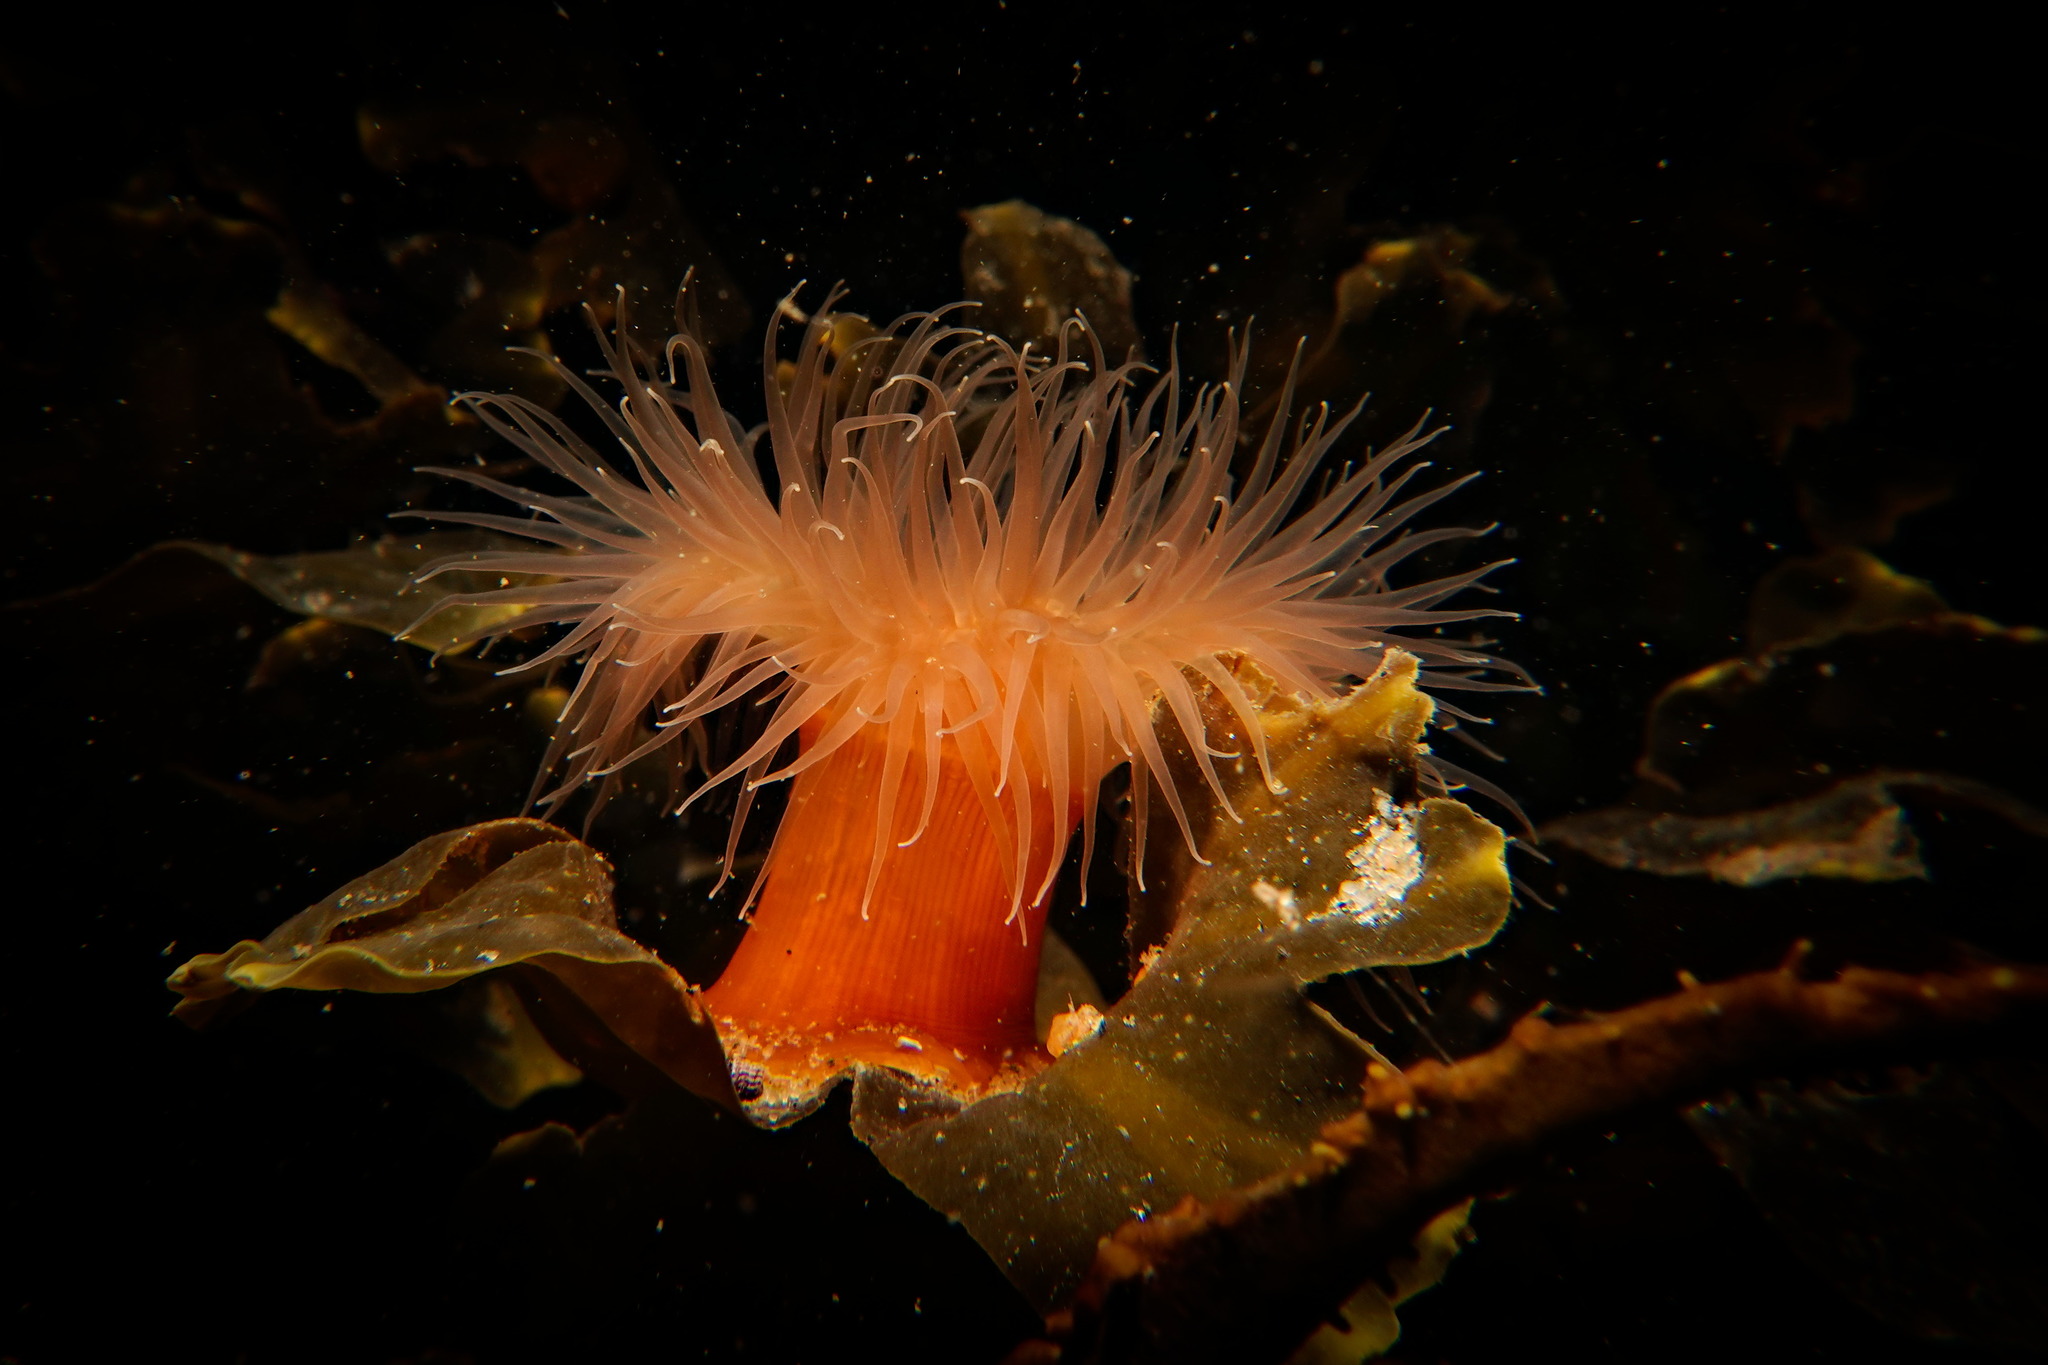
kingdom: Animalia
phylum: Cnidaria
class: Anthozoa
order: Actiniaria
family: Metridiidae
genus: Metridium
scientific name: Metridium senile
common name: Clonal plumose anemone
